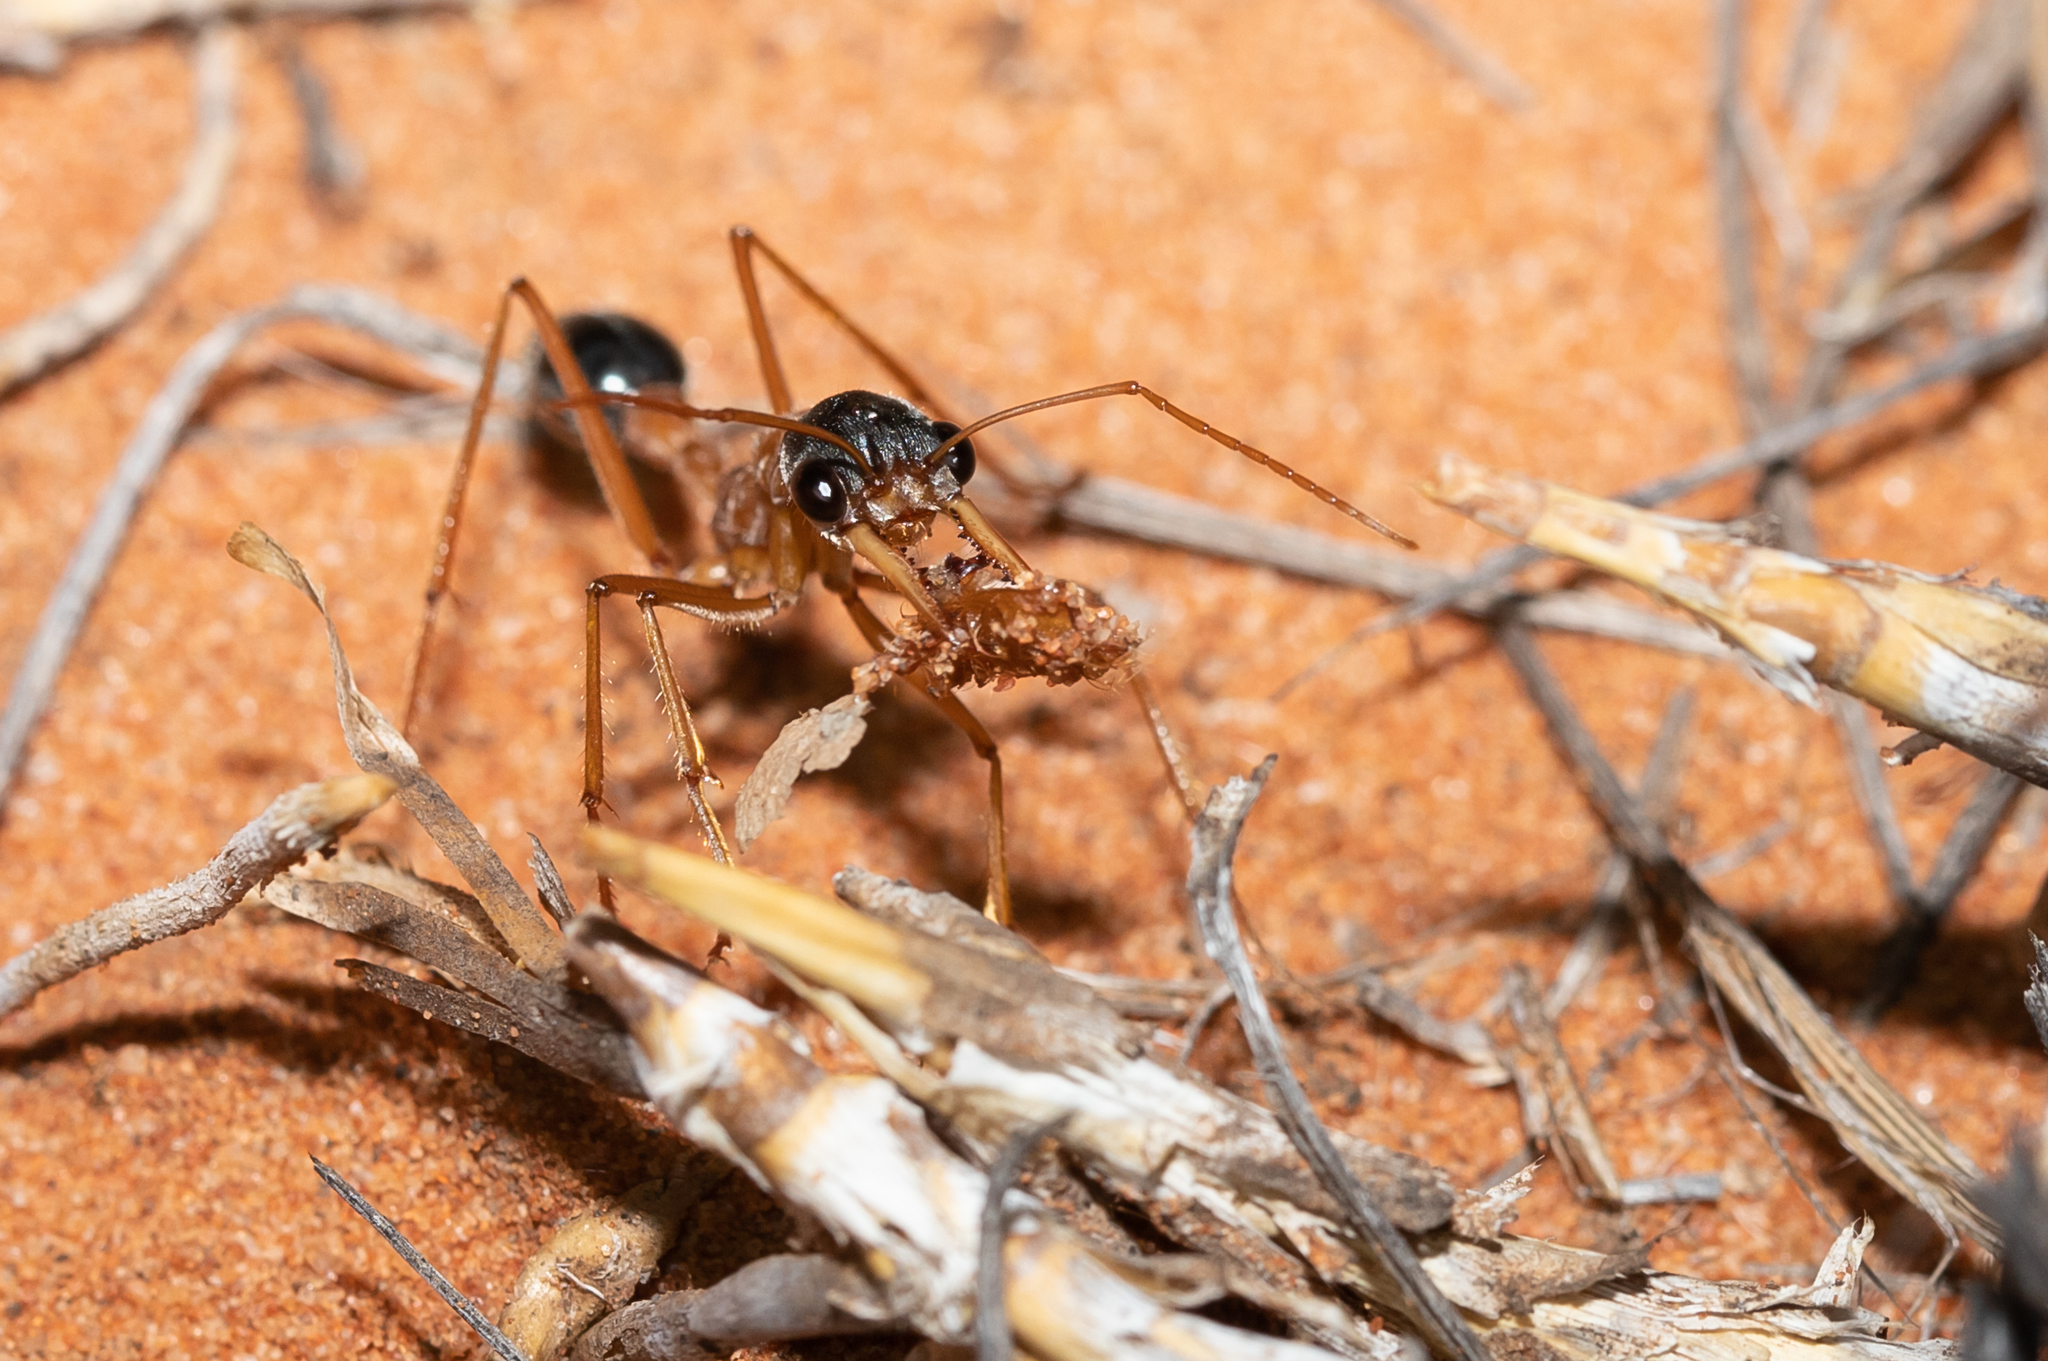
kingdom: Animalia
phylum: Arthropoda
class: Insecta
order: Hymenoptera
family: Formicidae
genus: Myrmecia
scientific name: Myrmecia desertorum
